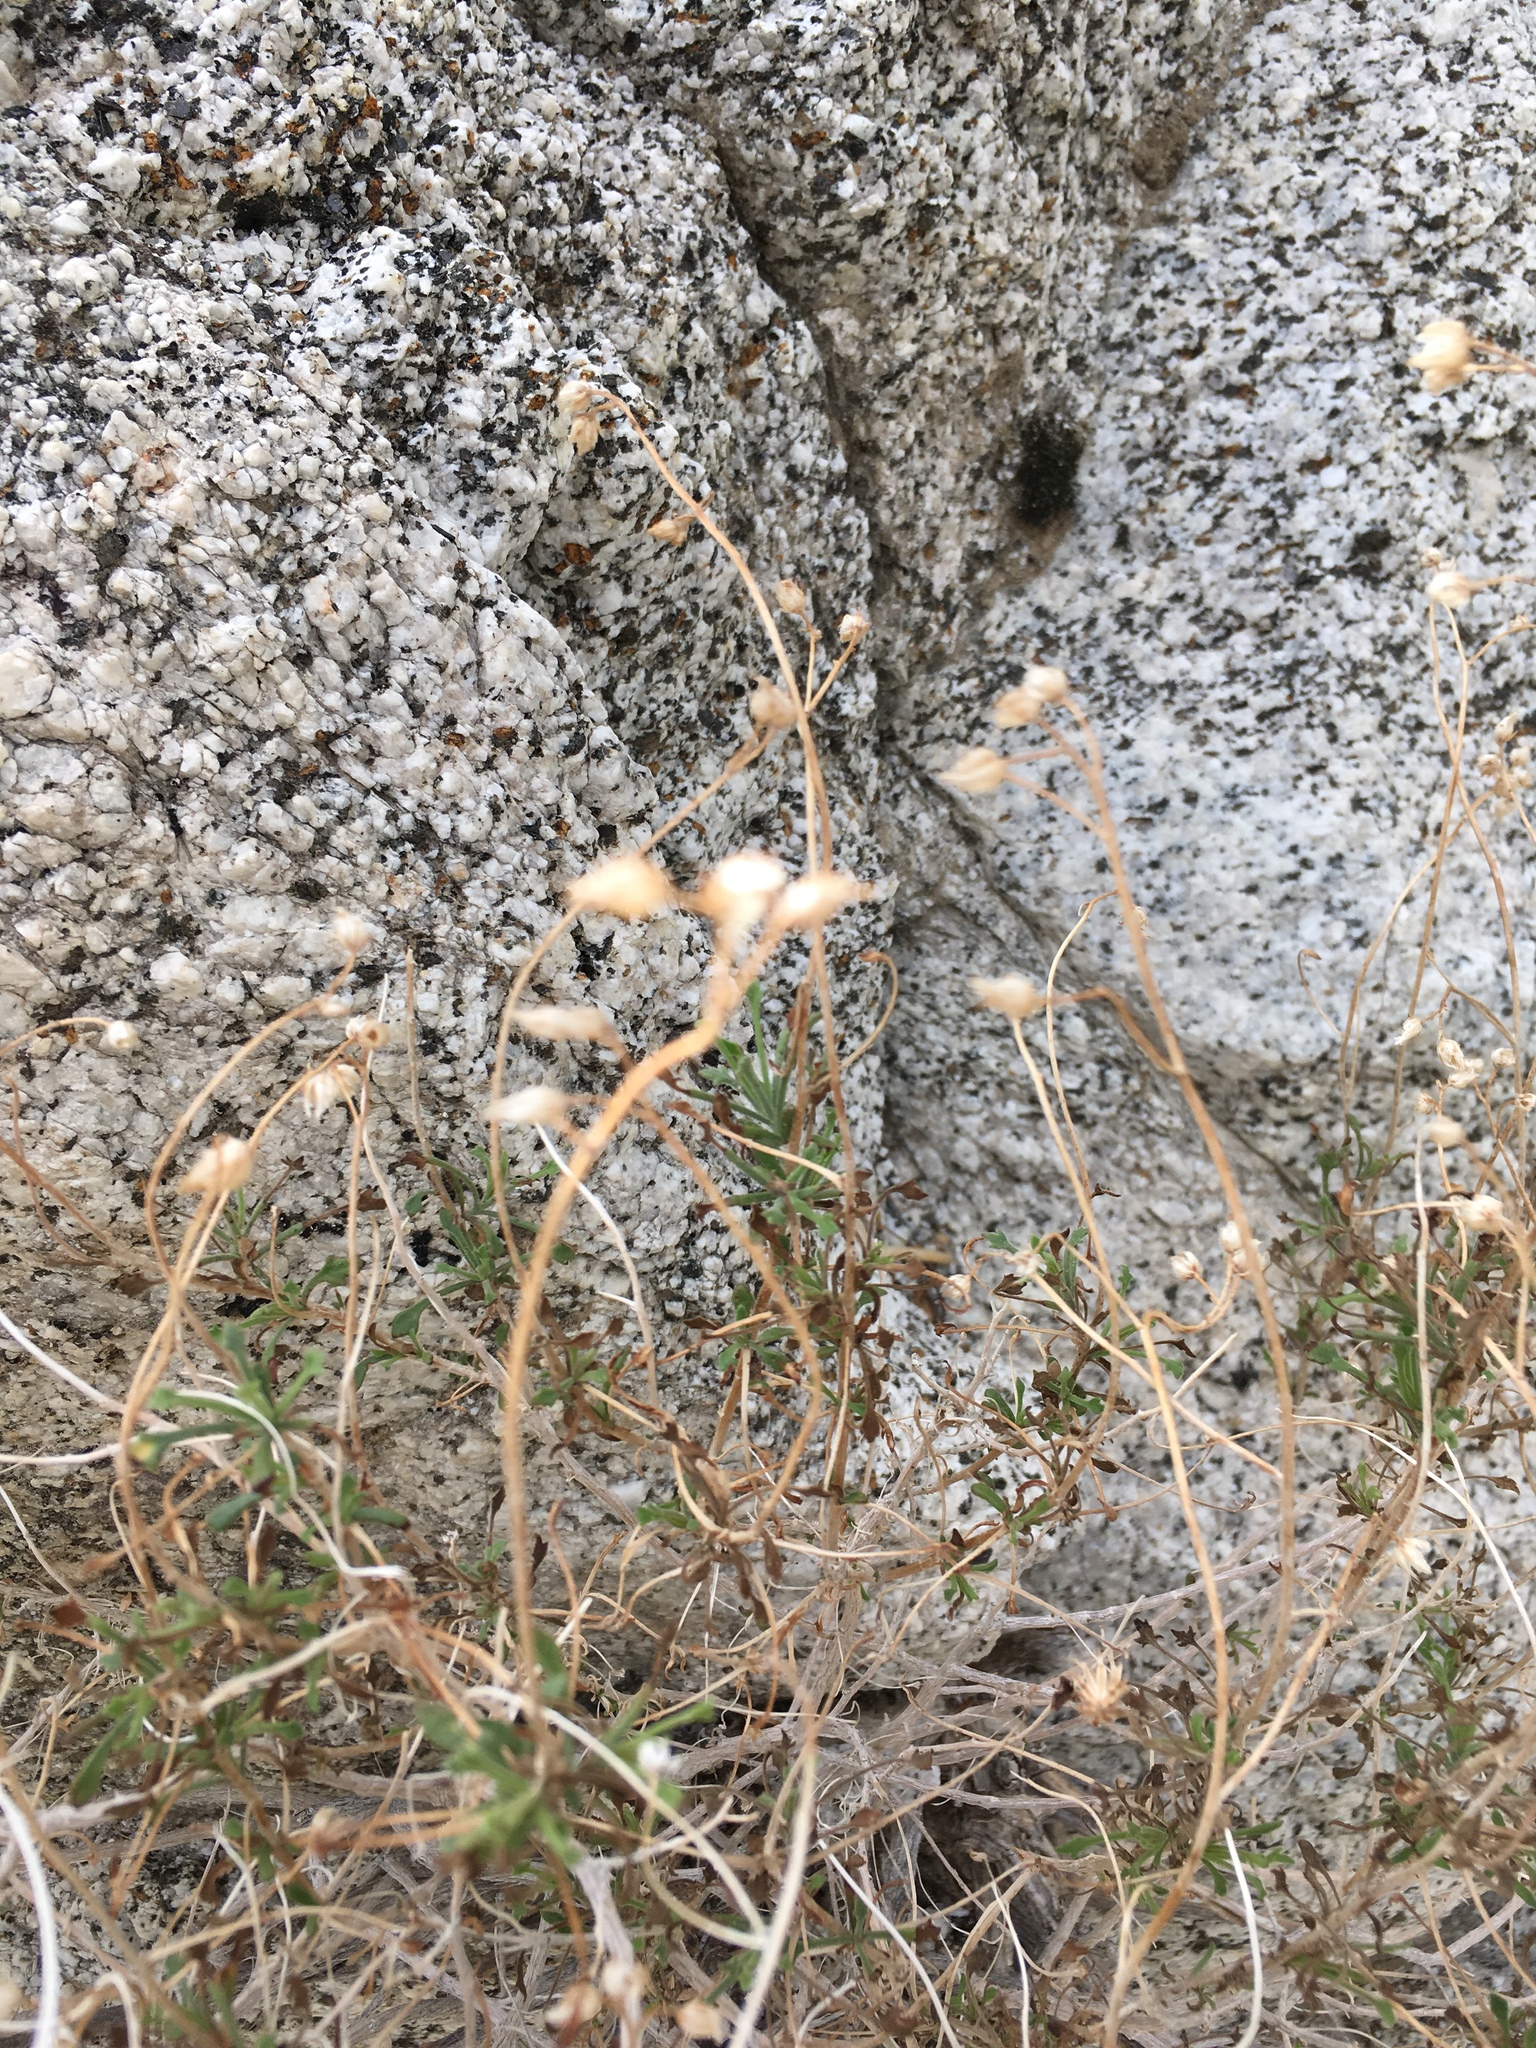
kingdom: Plantae
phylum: Tracheophyta
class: Magnoliopsida
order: Asterales
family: Asteraceae
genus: Pleurocoronis
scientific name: Pleurocoronis pluriseta
